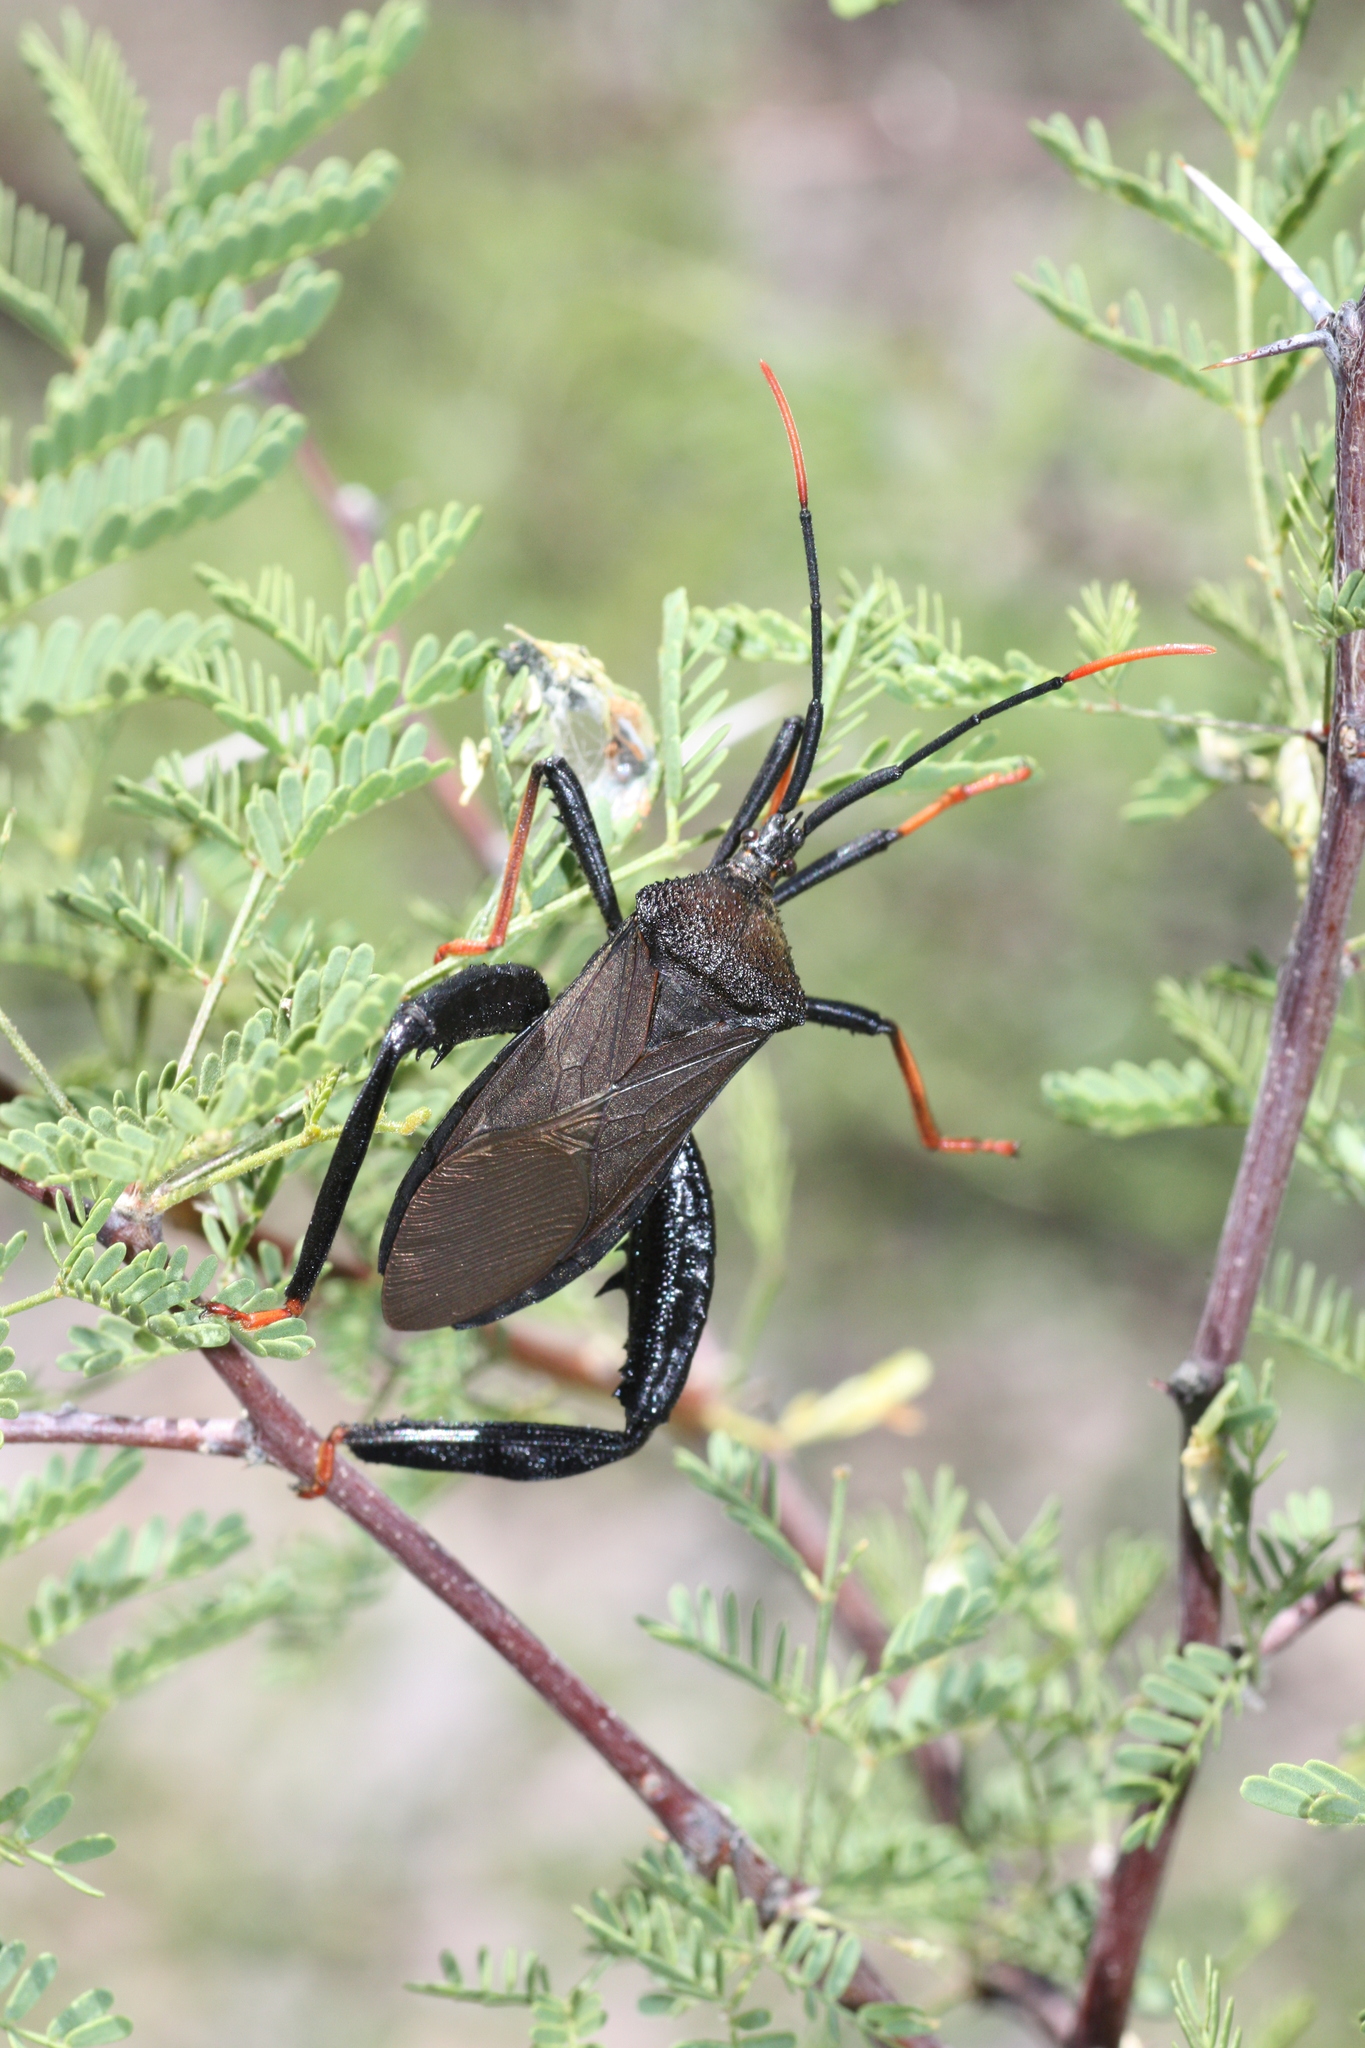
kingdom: Animalia
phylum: Arthropoda
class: Insecta
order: Hemiptera
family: Coreidae
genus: Acanthocephala
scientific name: Acanthocephala thomasi
